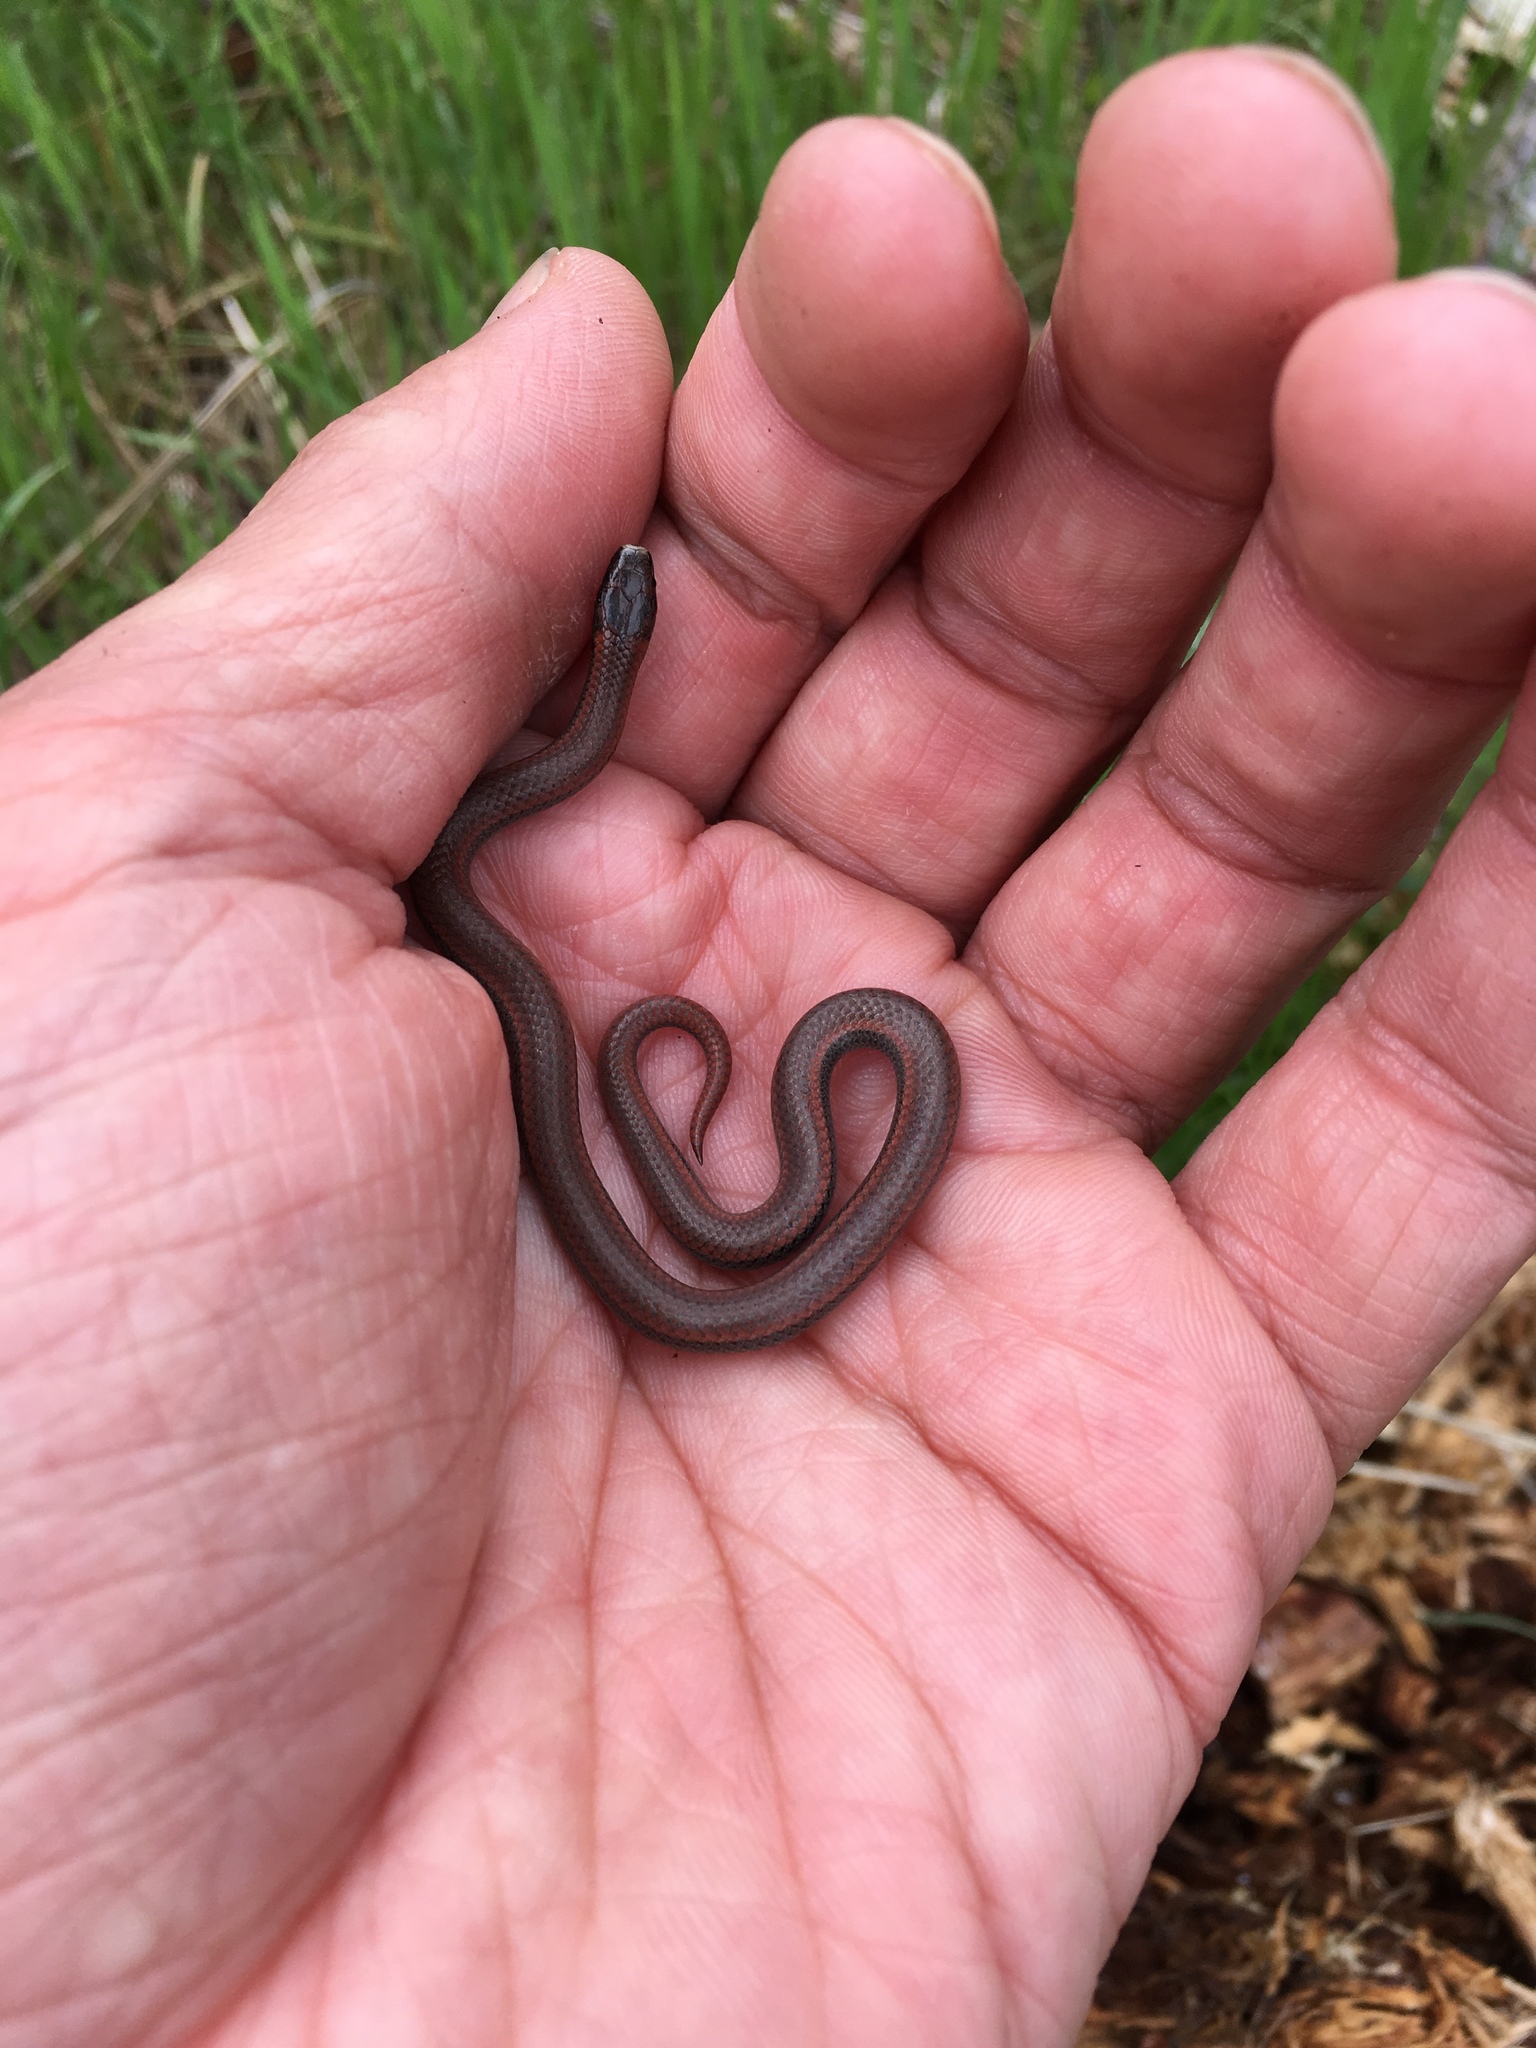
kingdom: Animalia
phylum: Chordata
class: Squamata
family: Colubridae
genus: Contia
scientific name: Contia tenuis
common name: Sharptail snake
